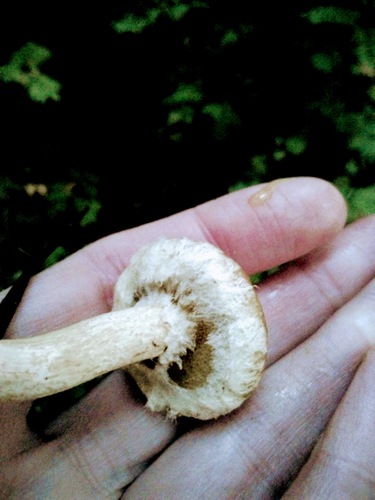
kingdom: Fungi
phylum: Basidiomycota
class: Agaricomycetes
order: Boletales
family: Suillaceae
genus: Suillus
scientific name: Suillus acidus
